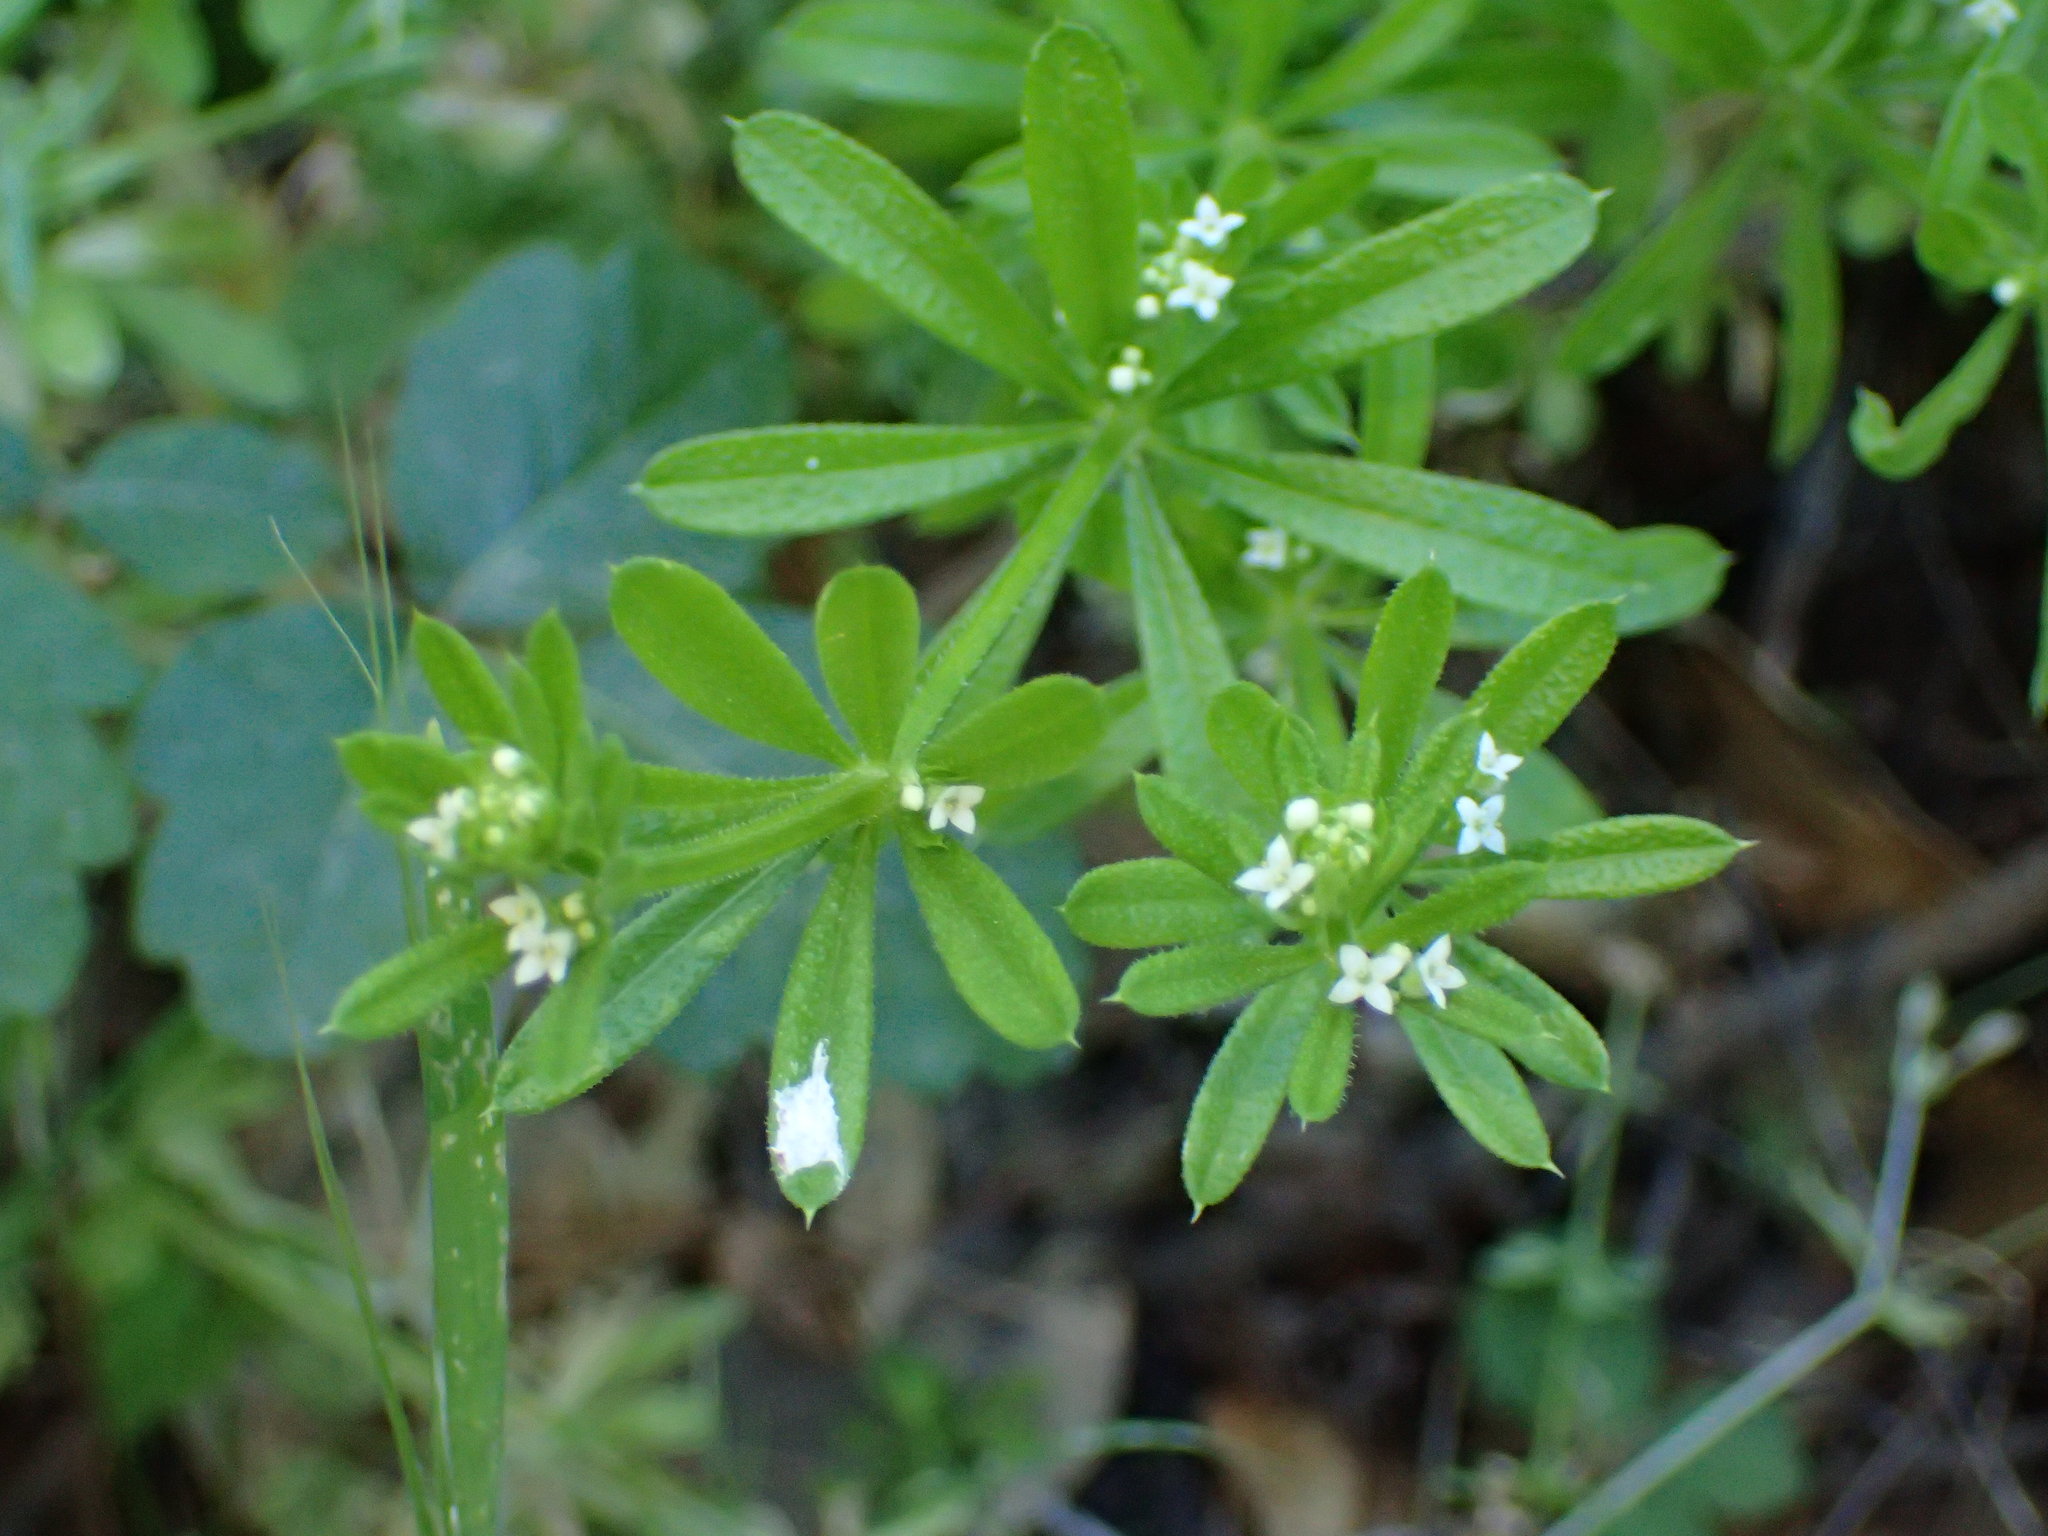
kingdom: Plantae
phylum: Tracheophyta
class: Magnoliopsida
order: Gentianales
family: Rubiaceae
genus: Galium
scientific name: Galium aparine
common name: Cleavers
